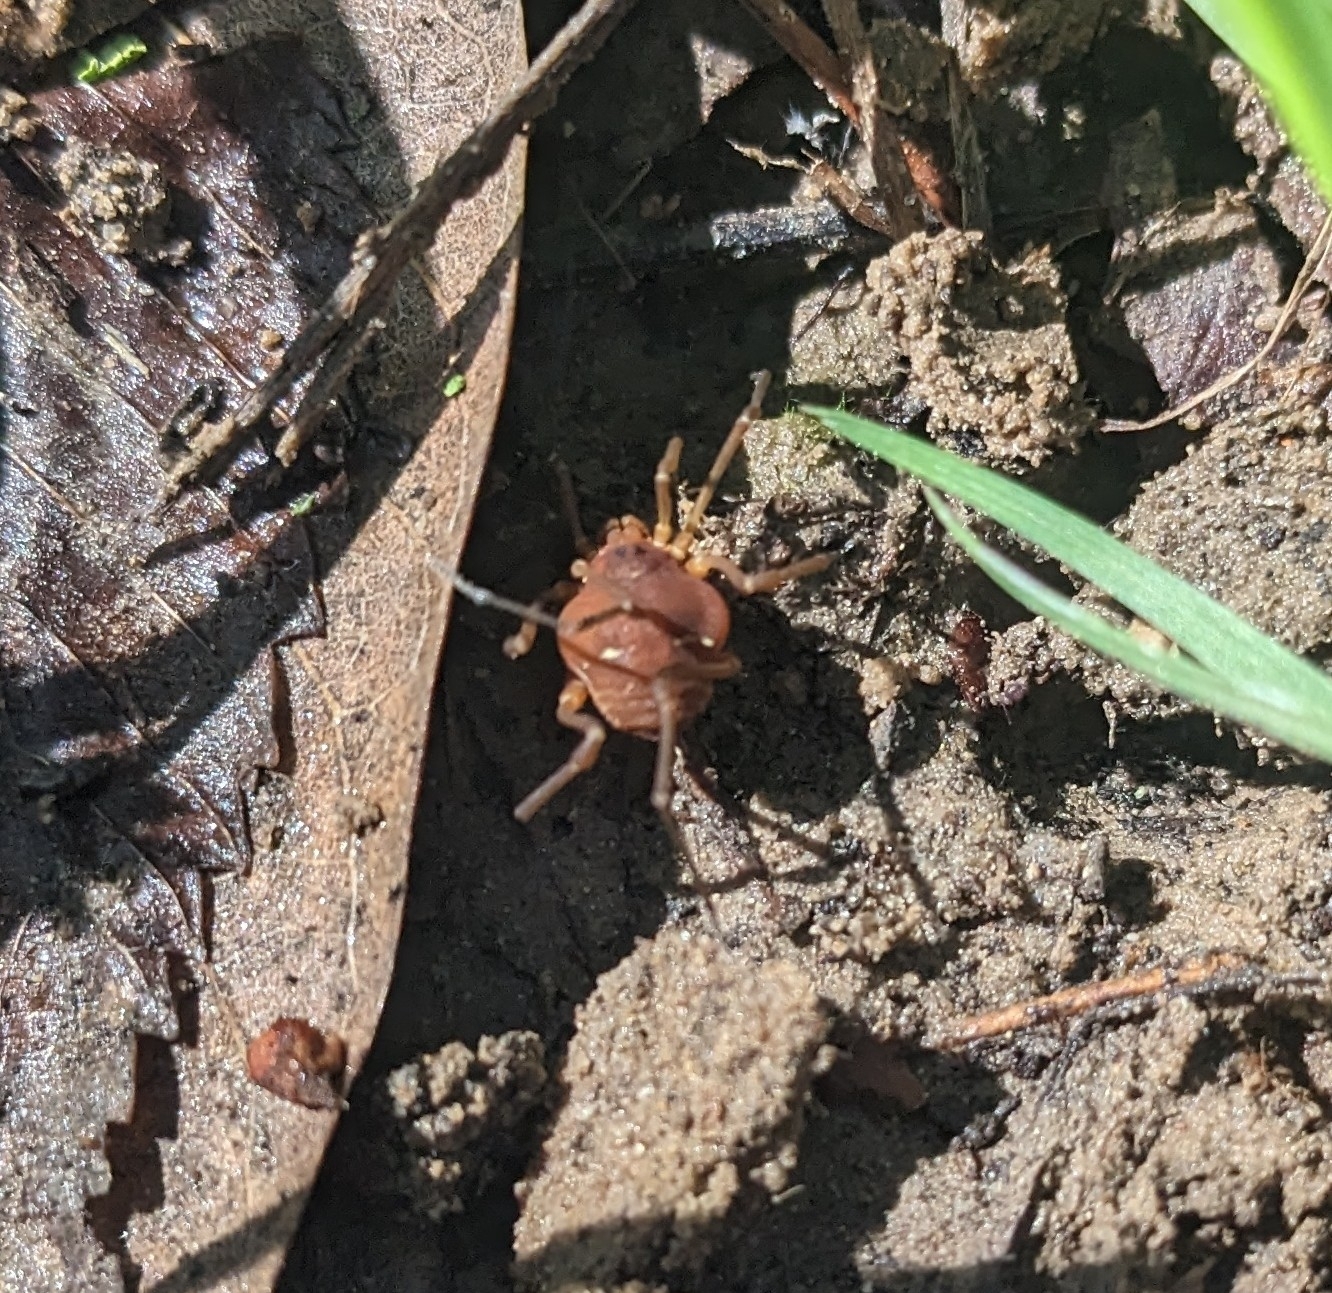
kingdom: Animalia
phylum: Arthropoda
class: Arachnida
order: Opiliones
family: Cosmetidae
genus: Libitioides
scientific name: Libitioides sayi
